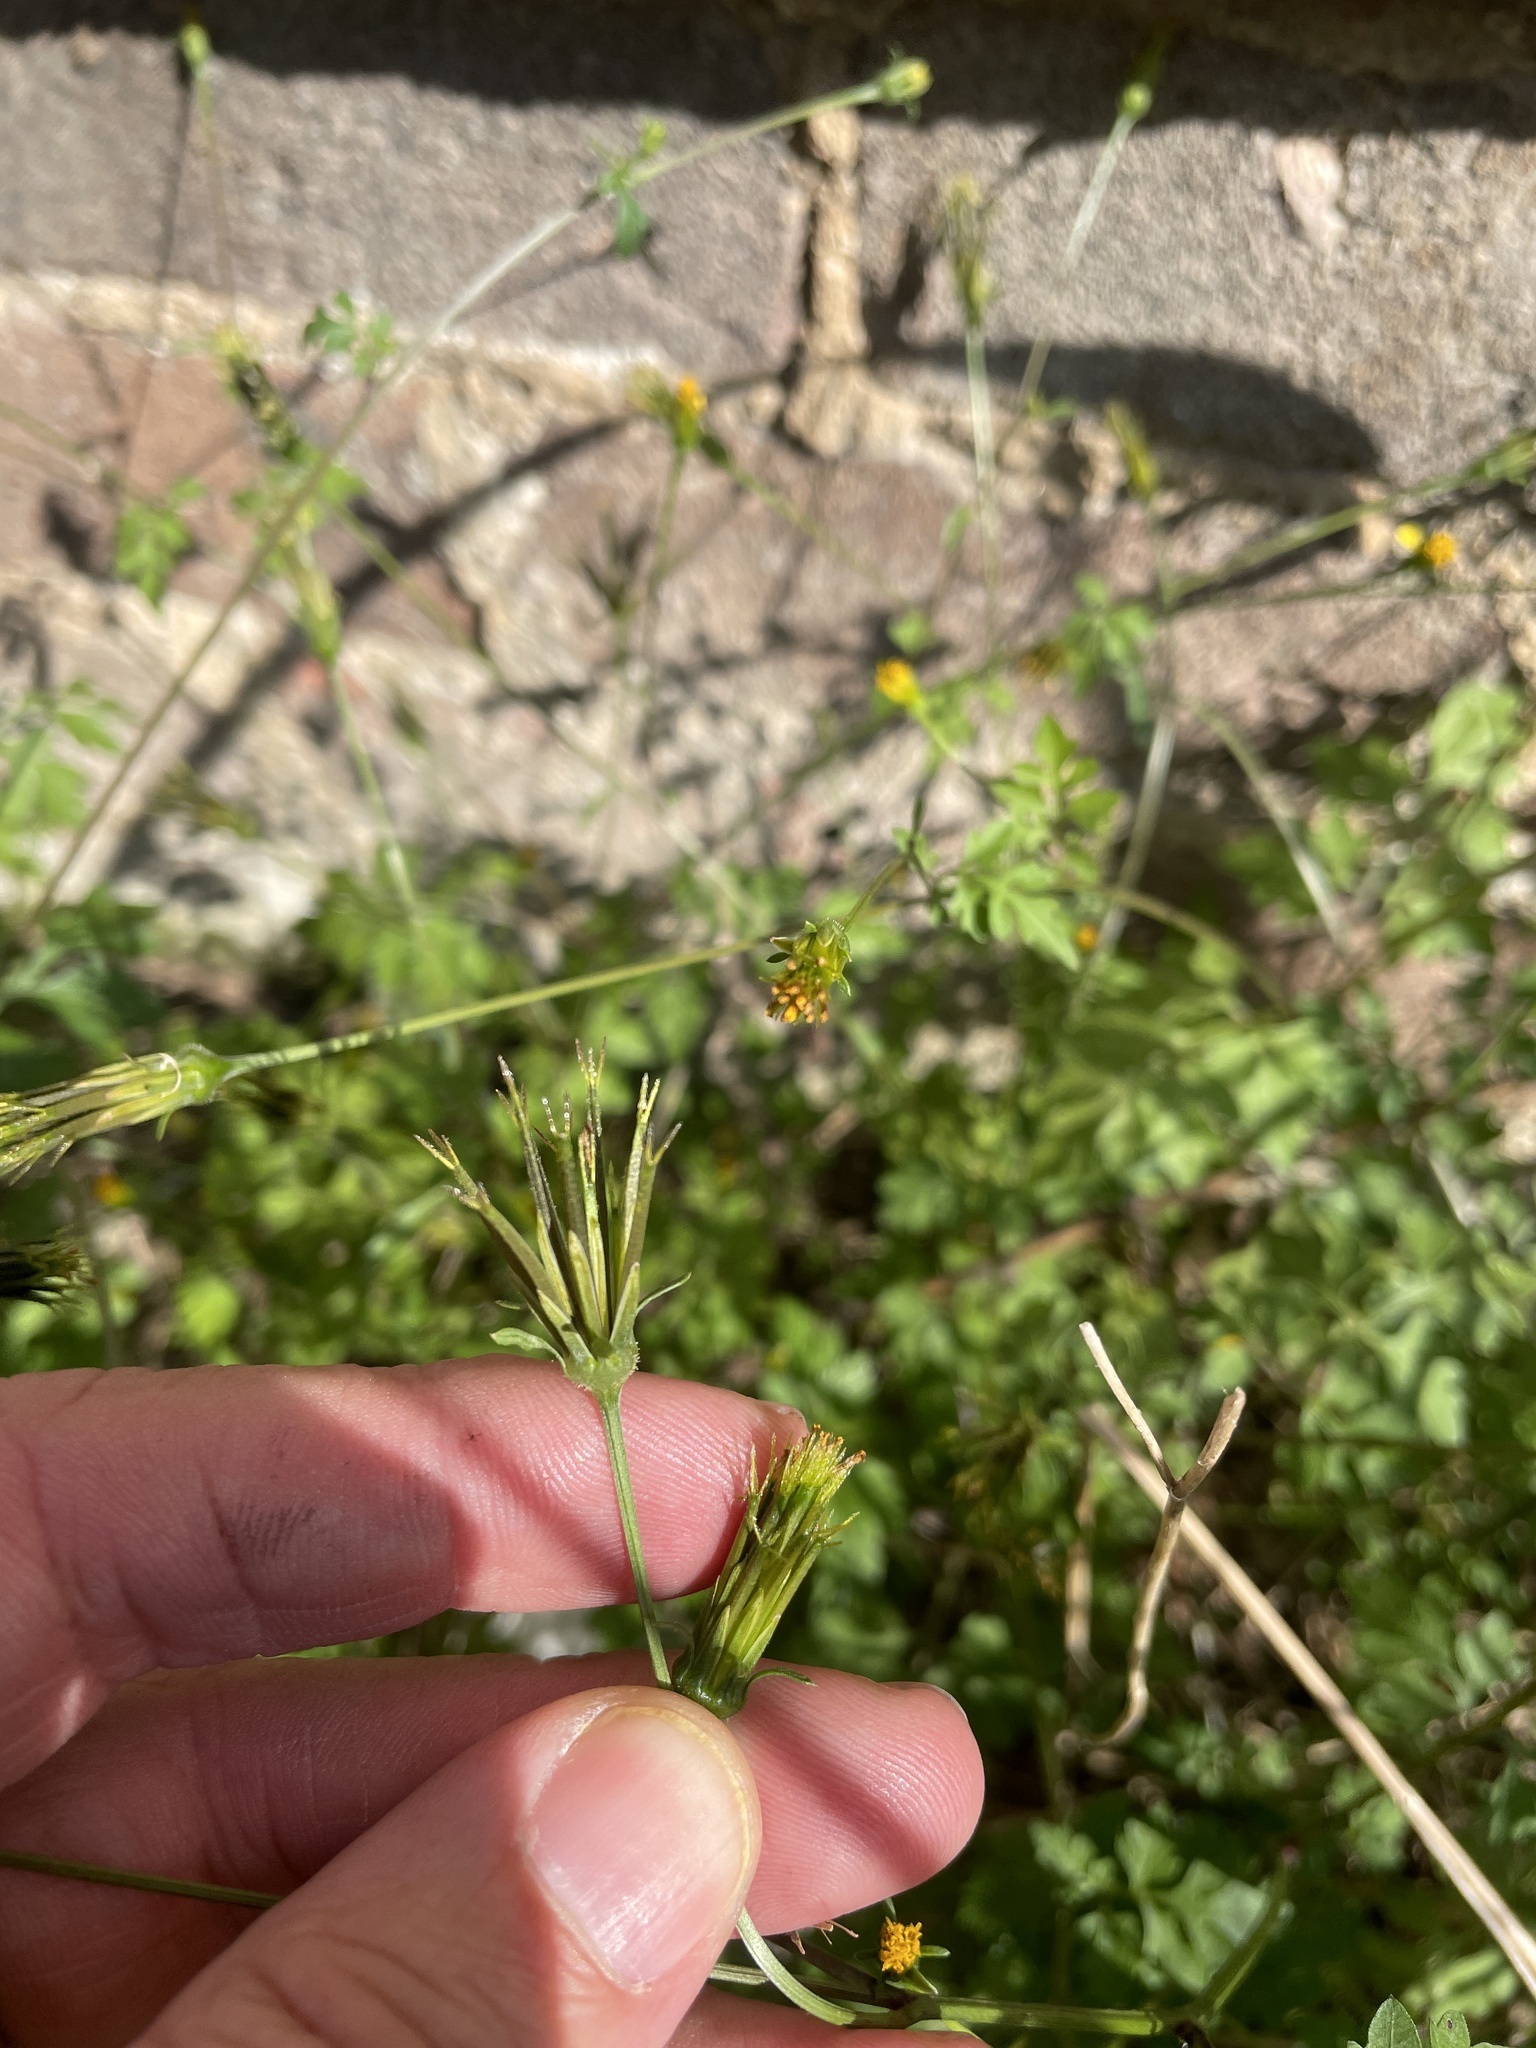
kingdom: Plantae
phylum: Tracheophyta
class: Magnoliopsida
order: Asterales
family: Asteraceae
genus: Bidens
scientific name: Bidens bipinnata
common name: Spanish-needles
